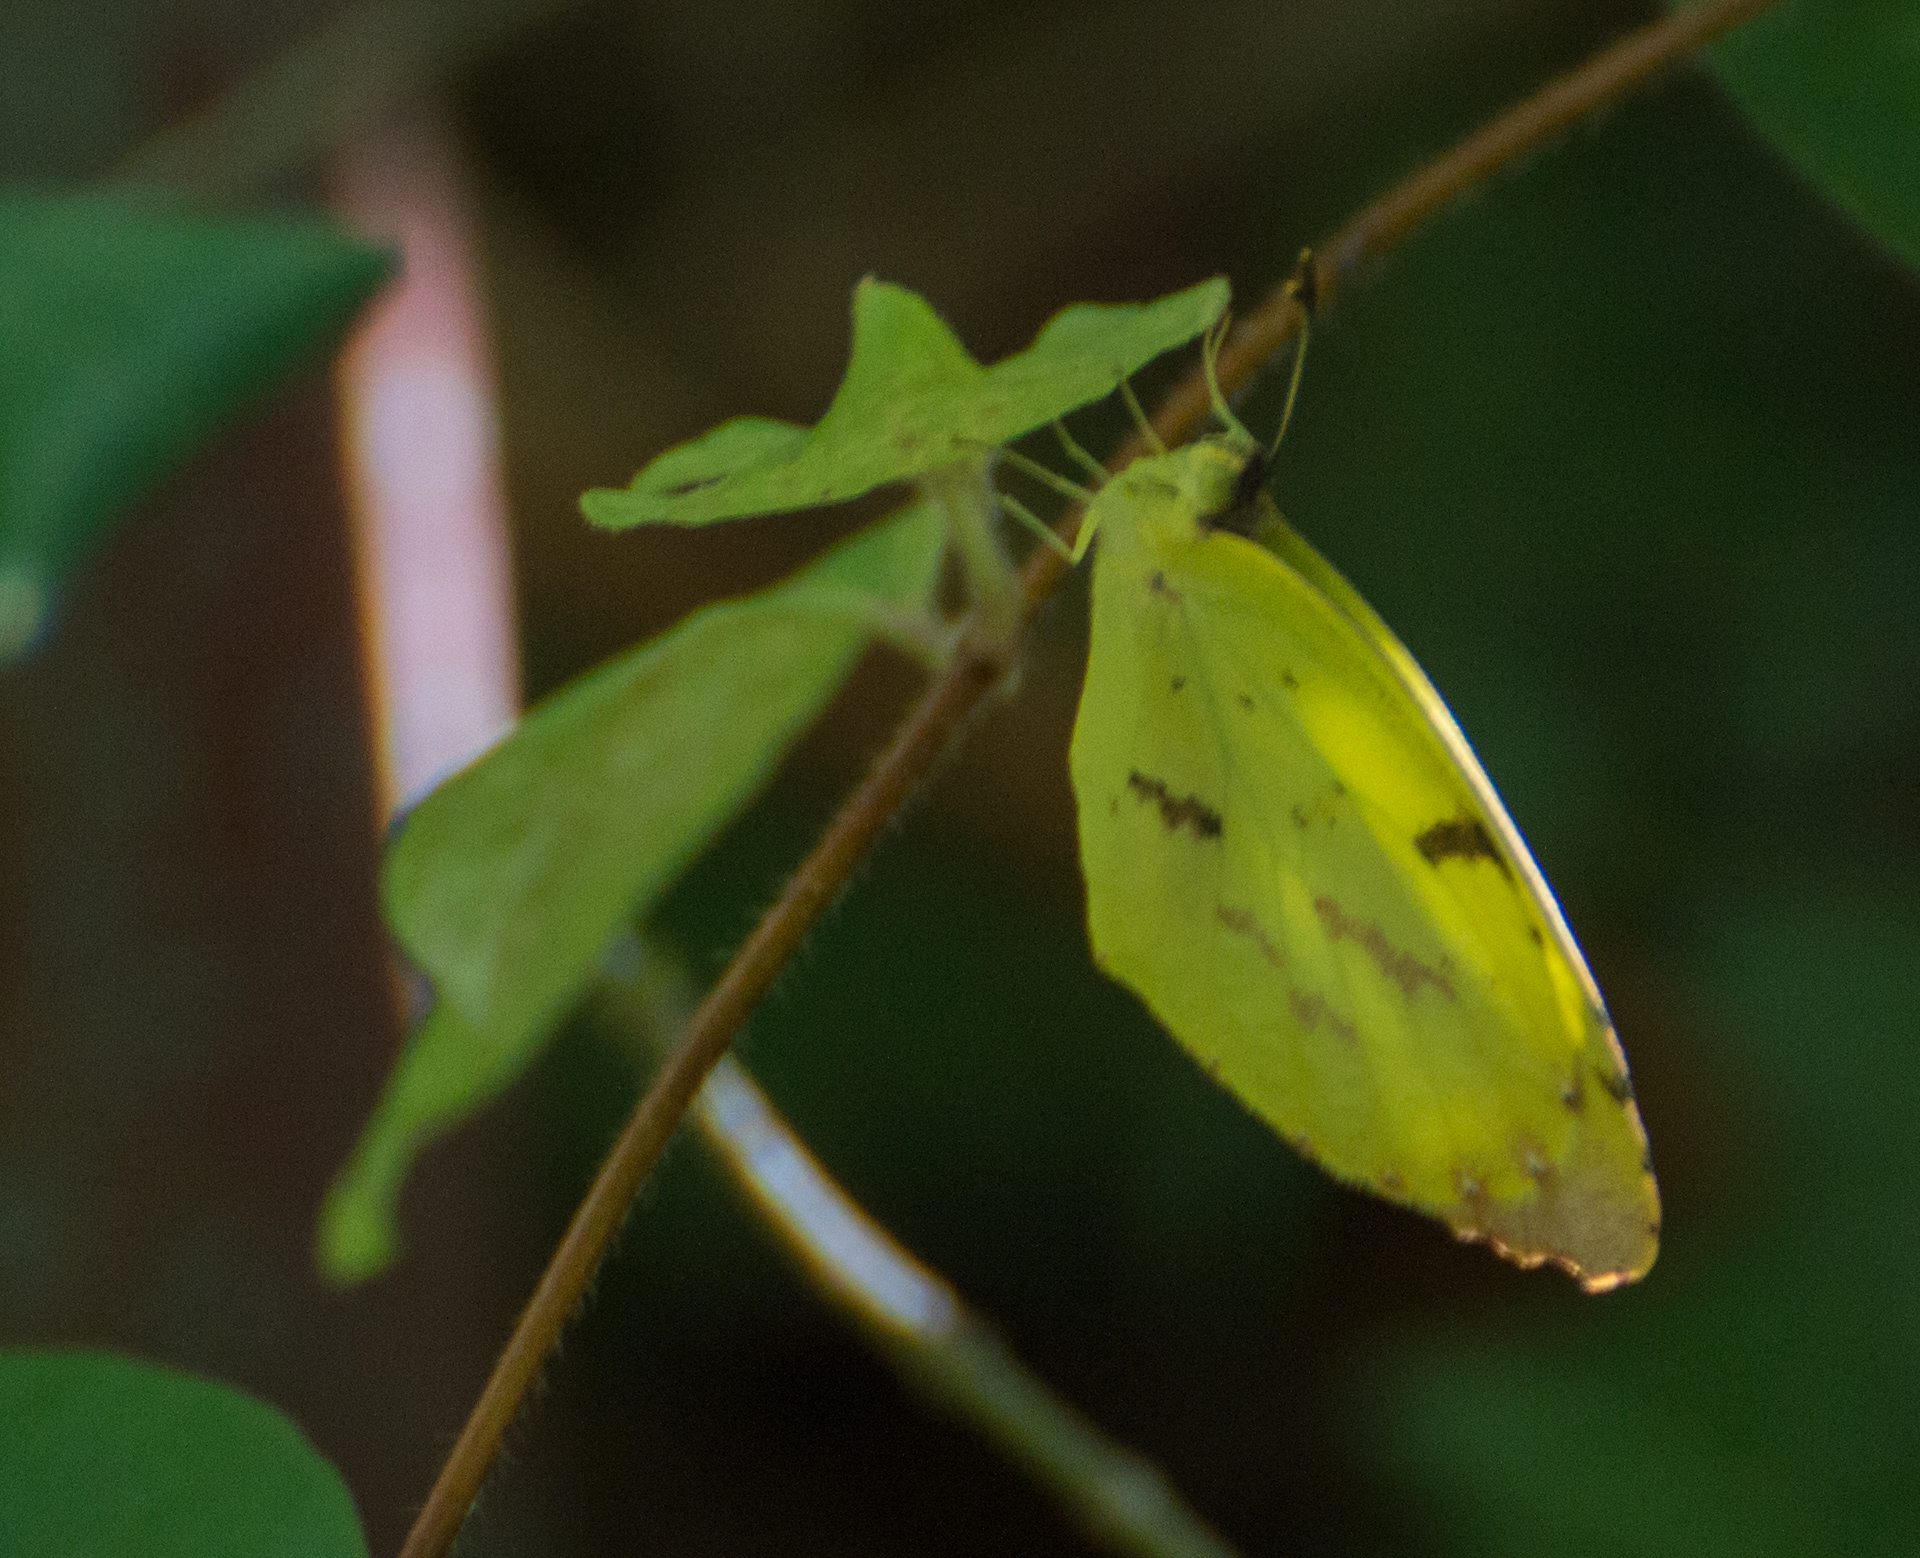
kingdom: Animalia
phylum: Arthropoda
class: Insecta
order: Lepidoptera
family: Pieridae
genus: Teriocolias
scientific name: Teriocolias
